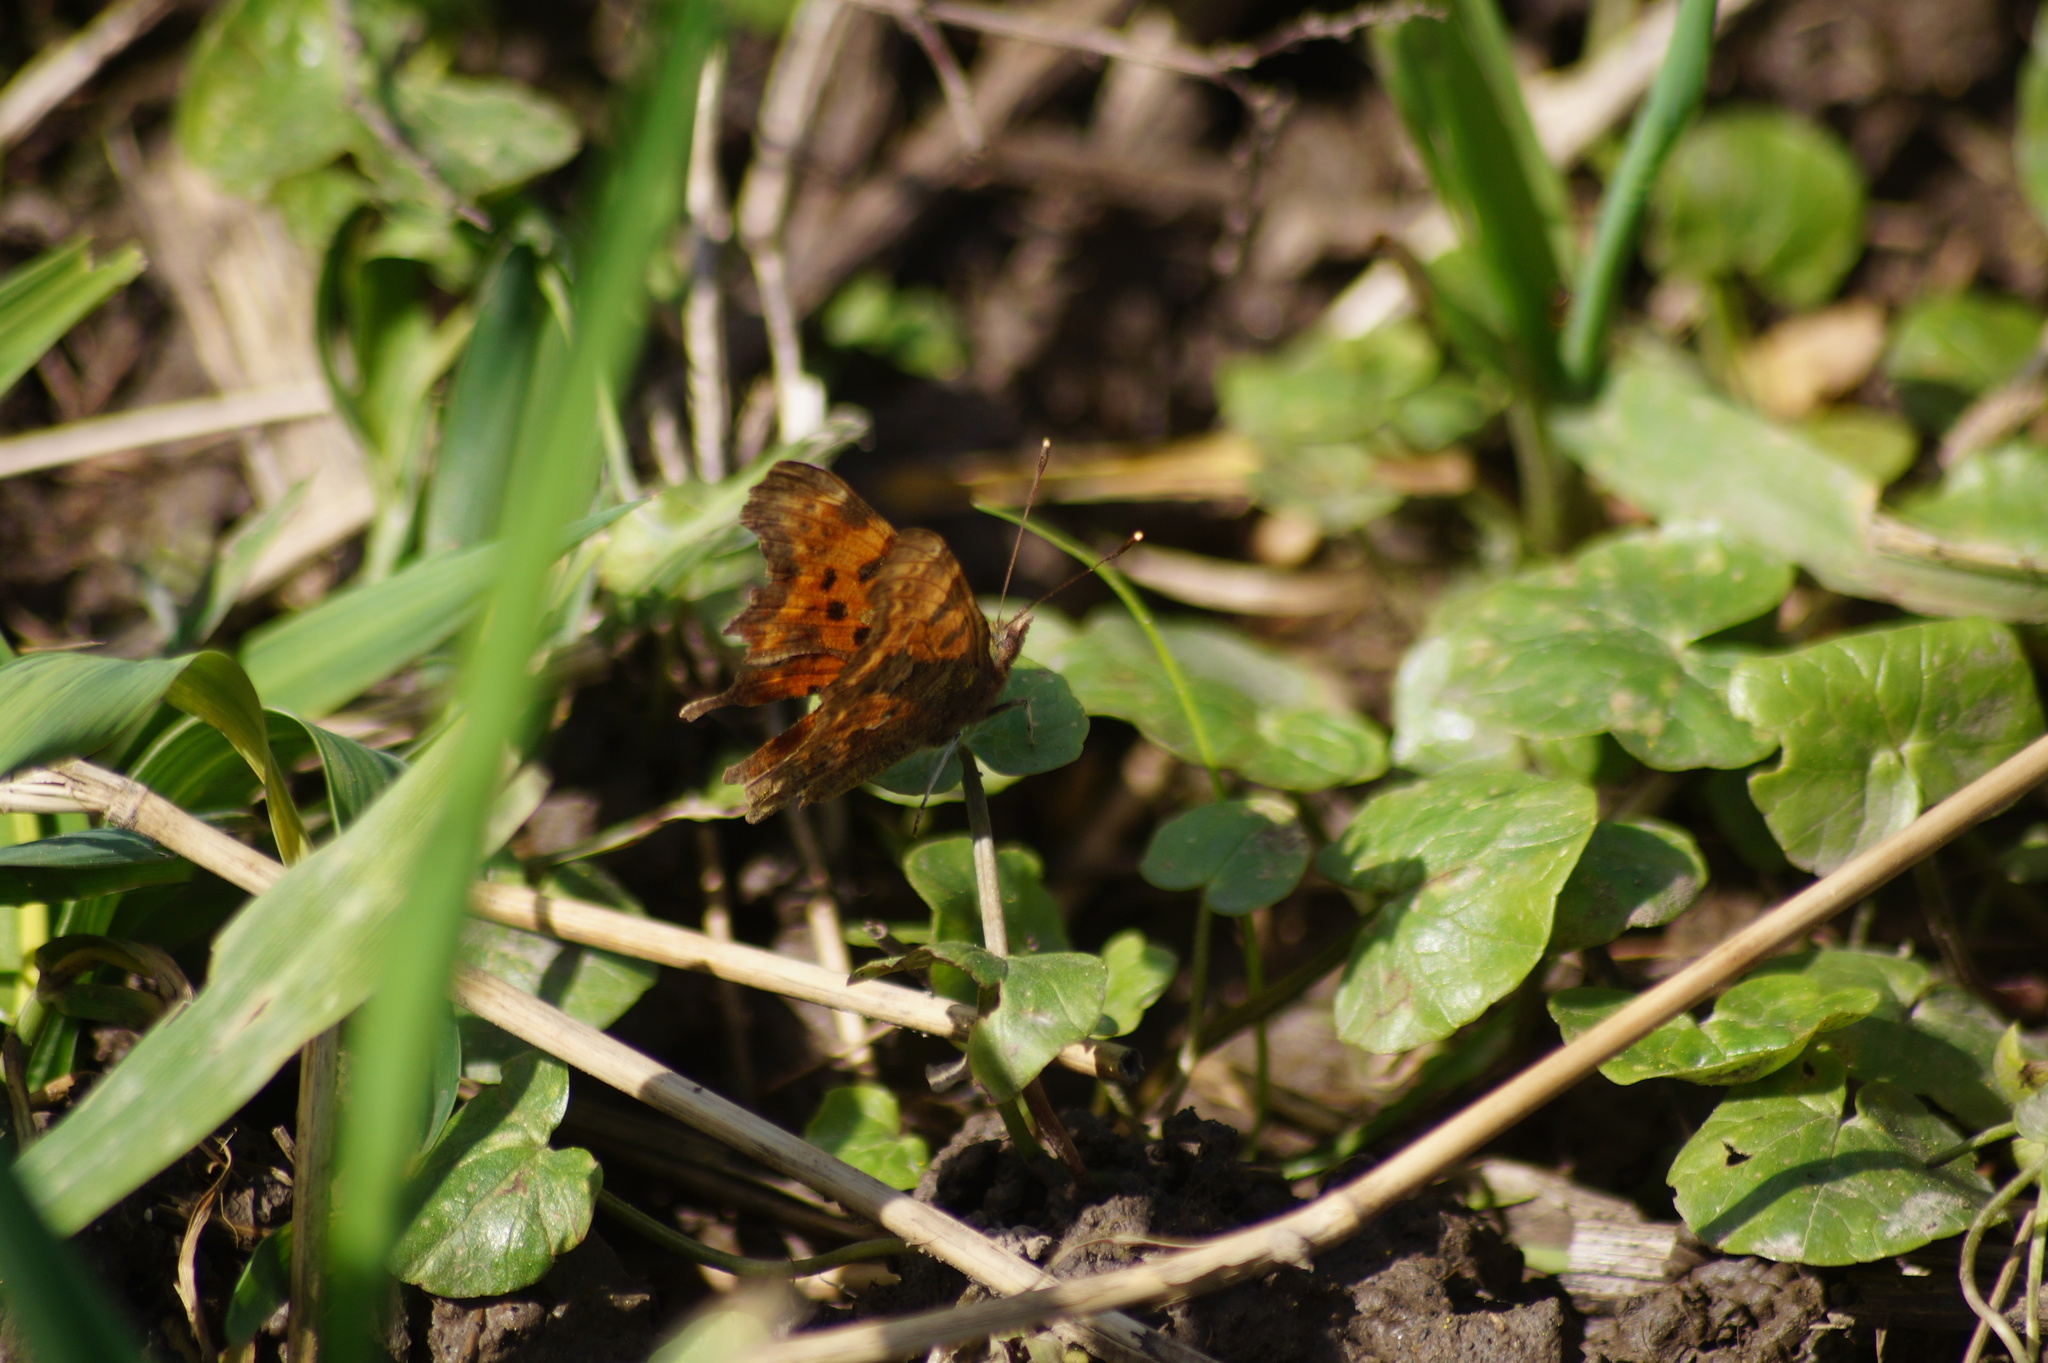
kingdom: Animalia
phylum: Arthropoda
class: Insecta
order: Lepidoptera
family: Nymphalidae
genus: Polygonia
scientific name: Polygonia c-album
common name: Comma
